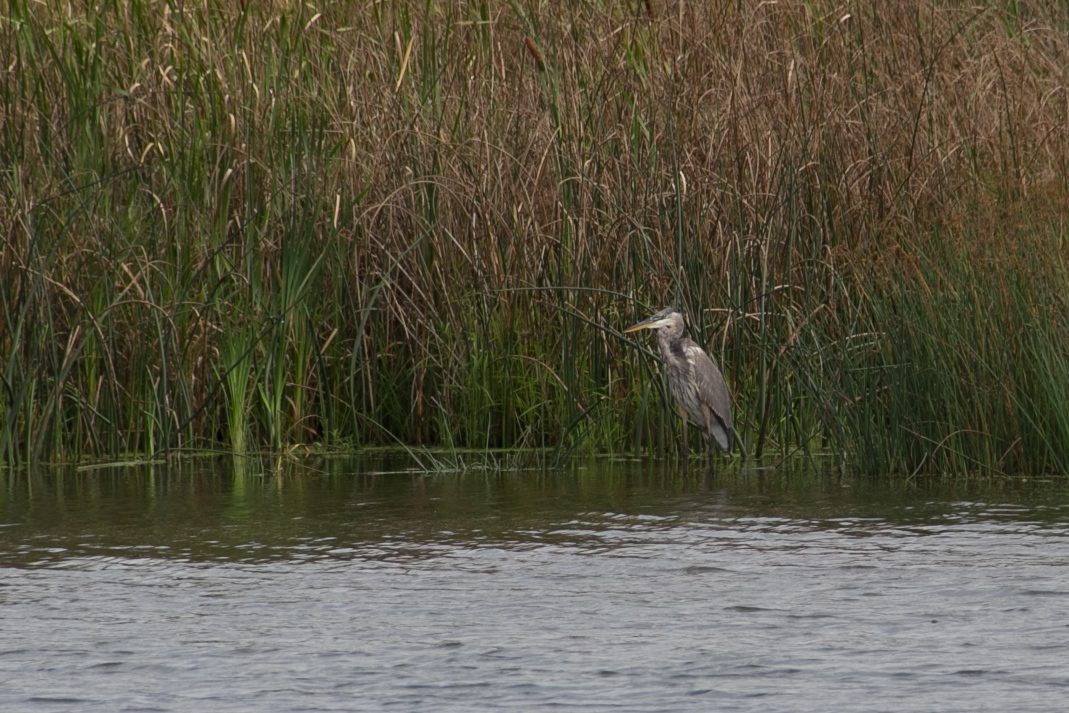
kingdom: Animalia
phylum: Chordata
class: Aves
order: Pelecaniformes
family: Ardeidae
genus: Ardea
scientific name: Ardea herodias
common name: Great blue heron
